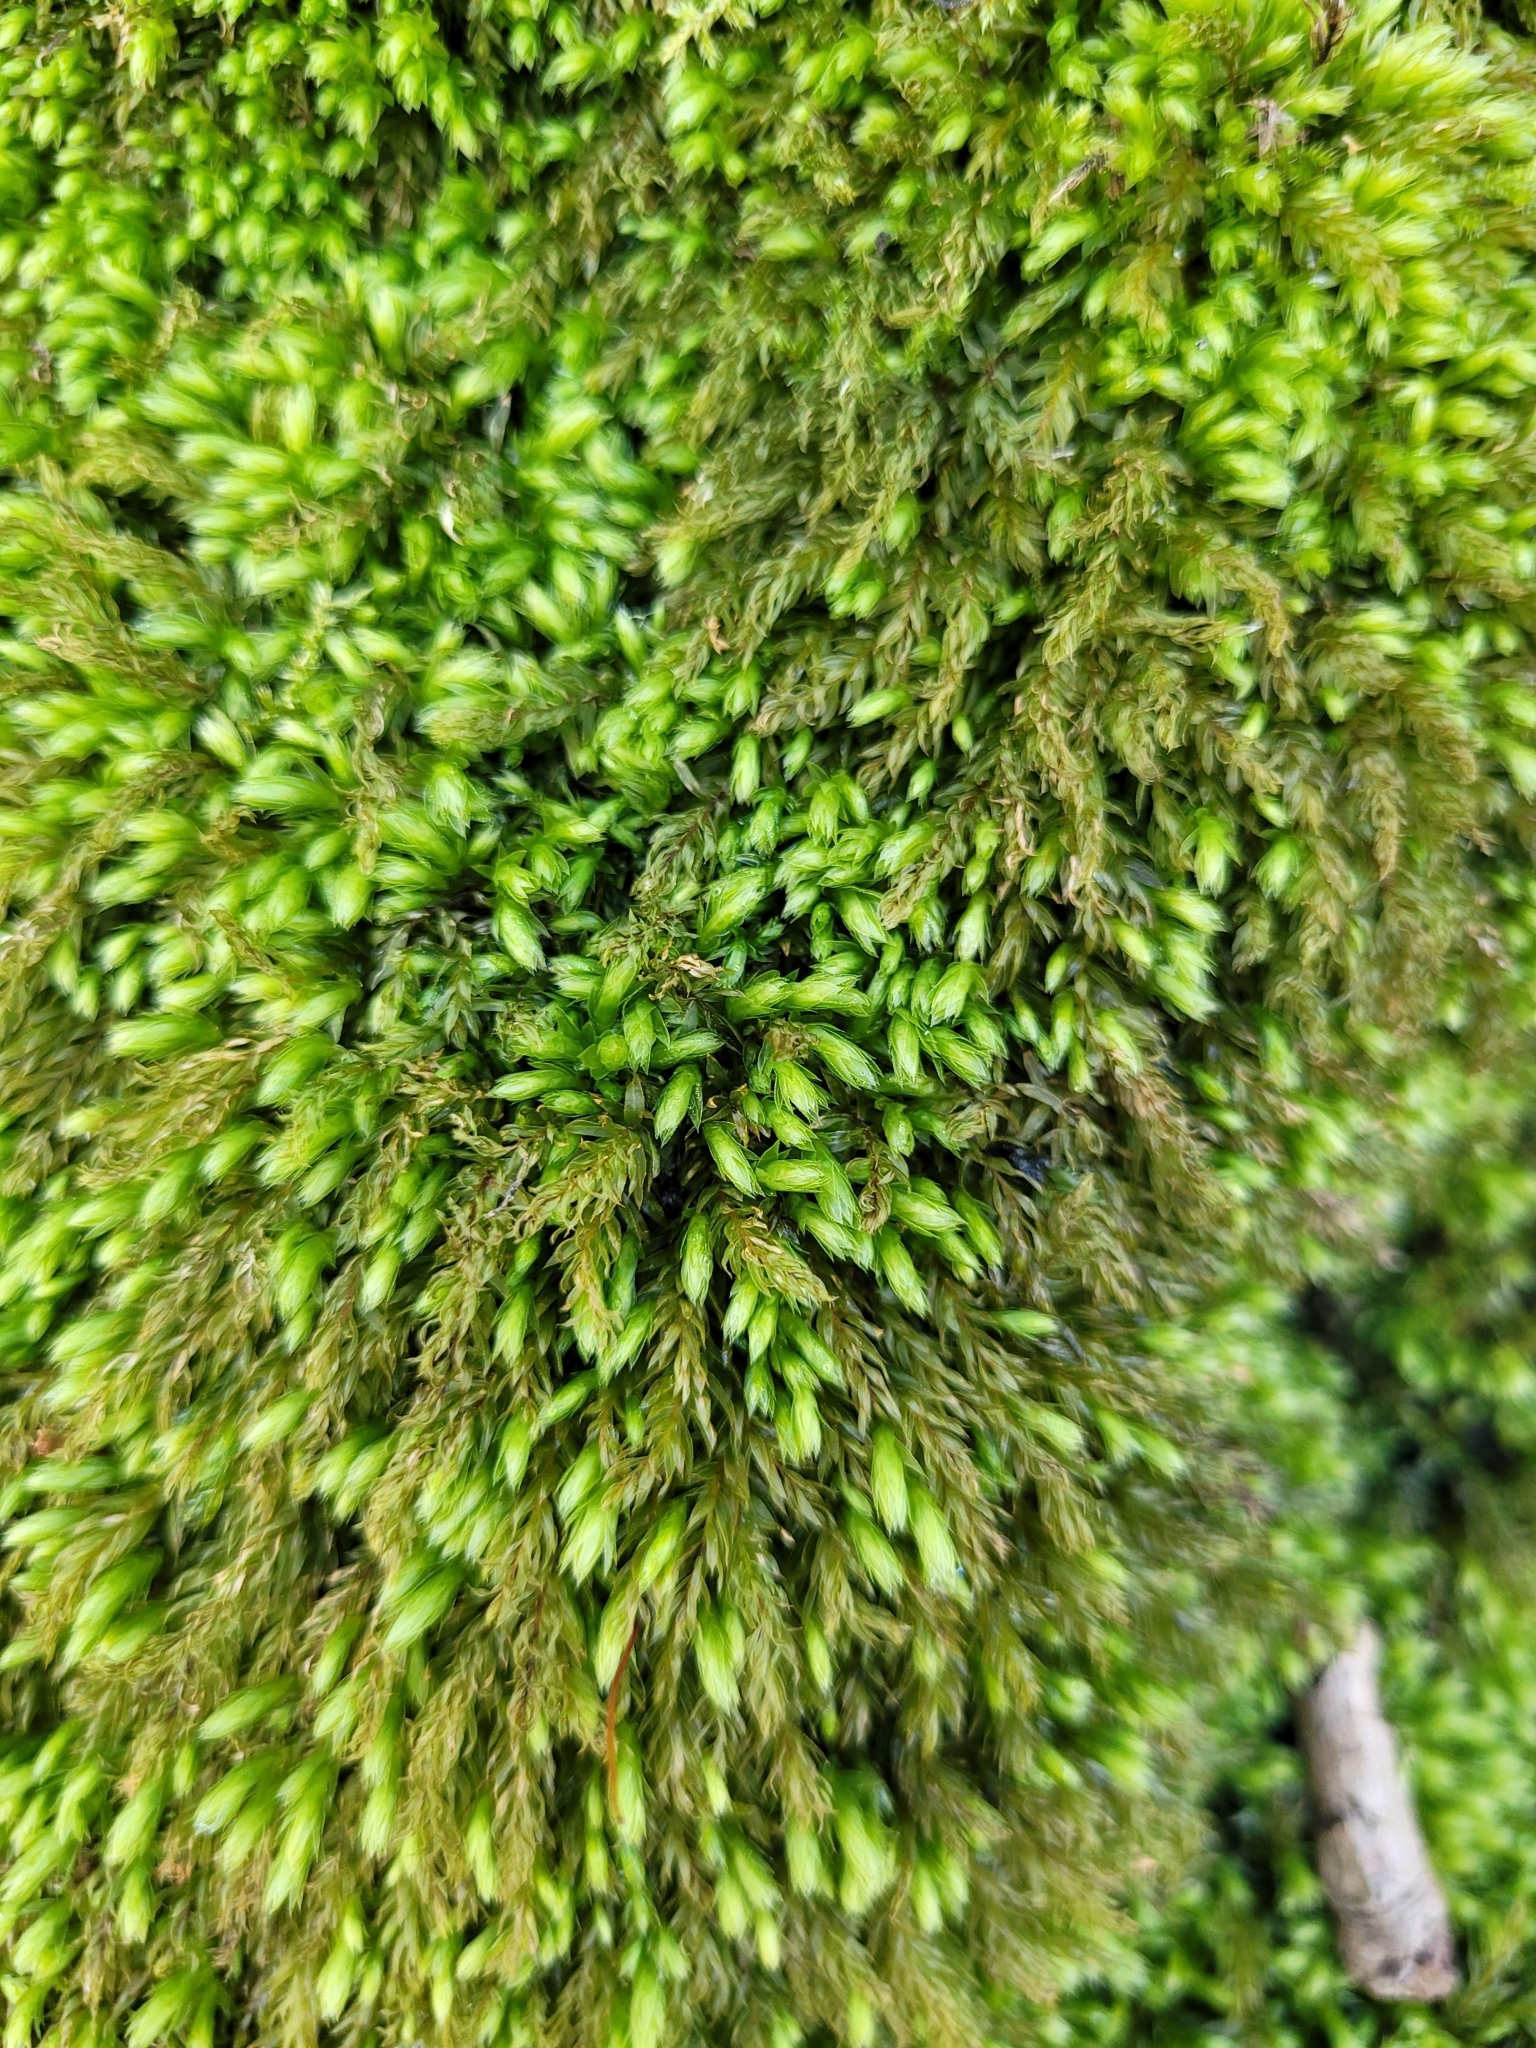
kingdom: Plantae
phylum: Bryophyta
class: Bryopsida
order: Bryales
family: Mniaceae
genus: Mnium
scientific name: Mnium hornum
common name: Swan's-neck leafy moss
